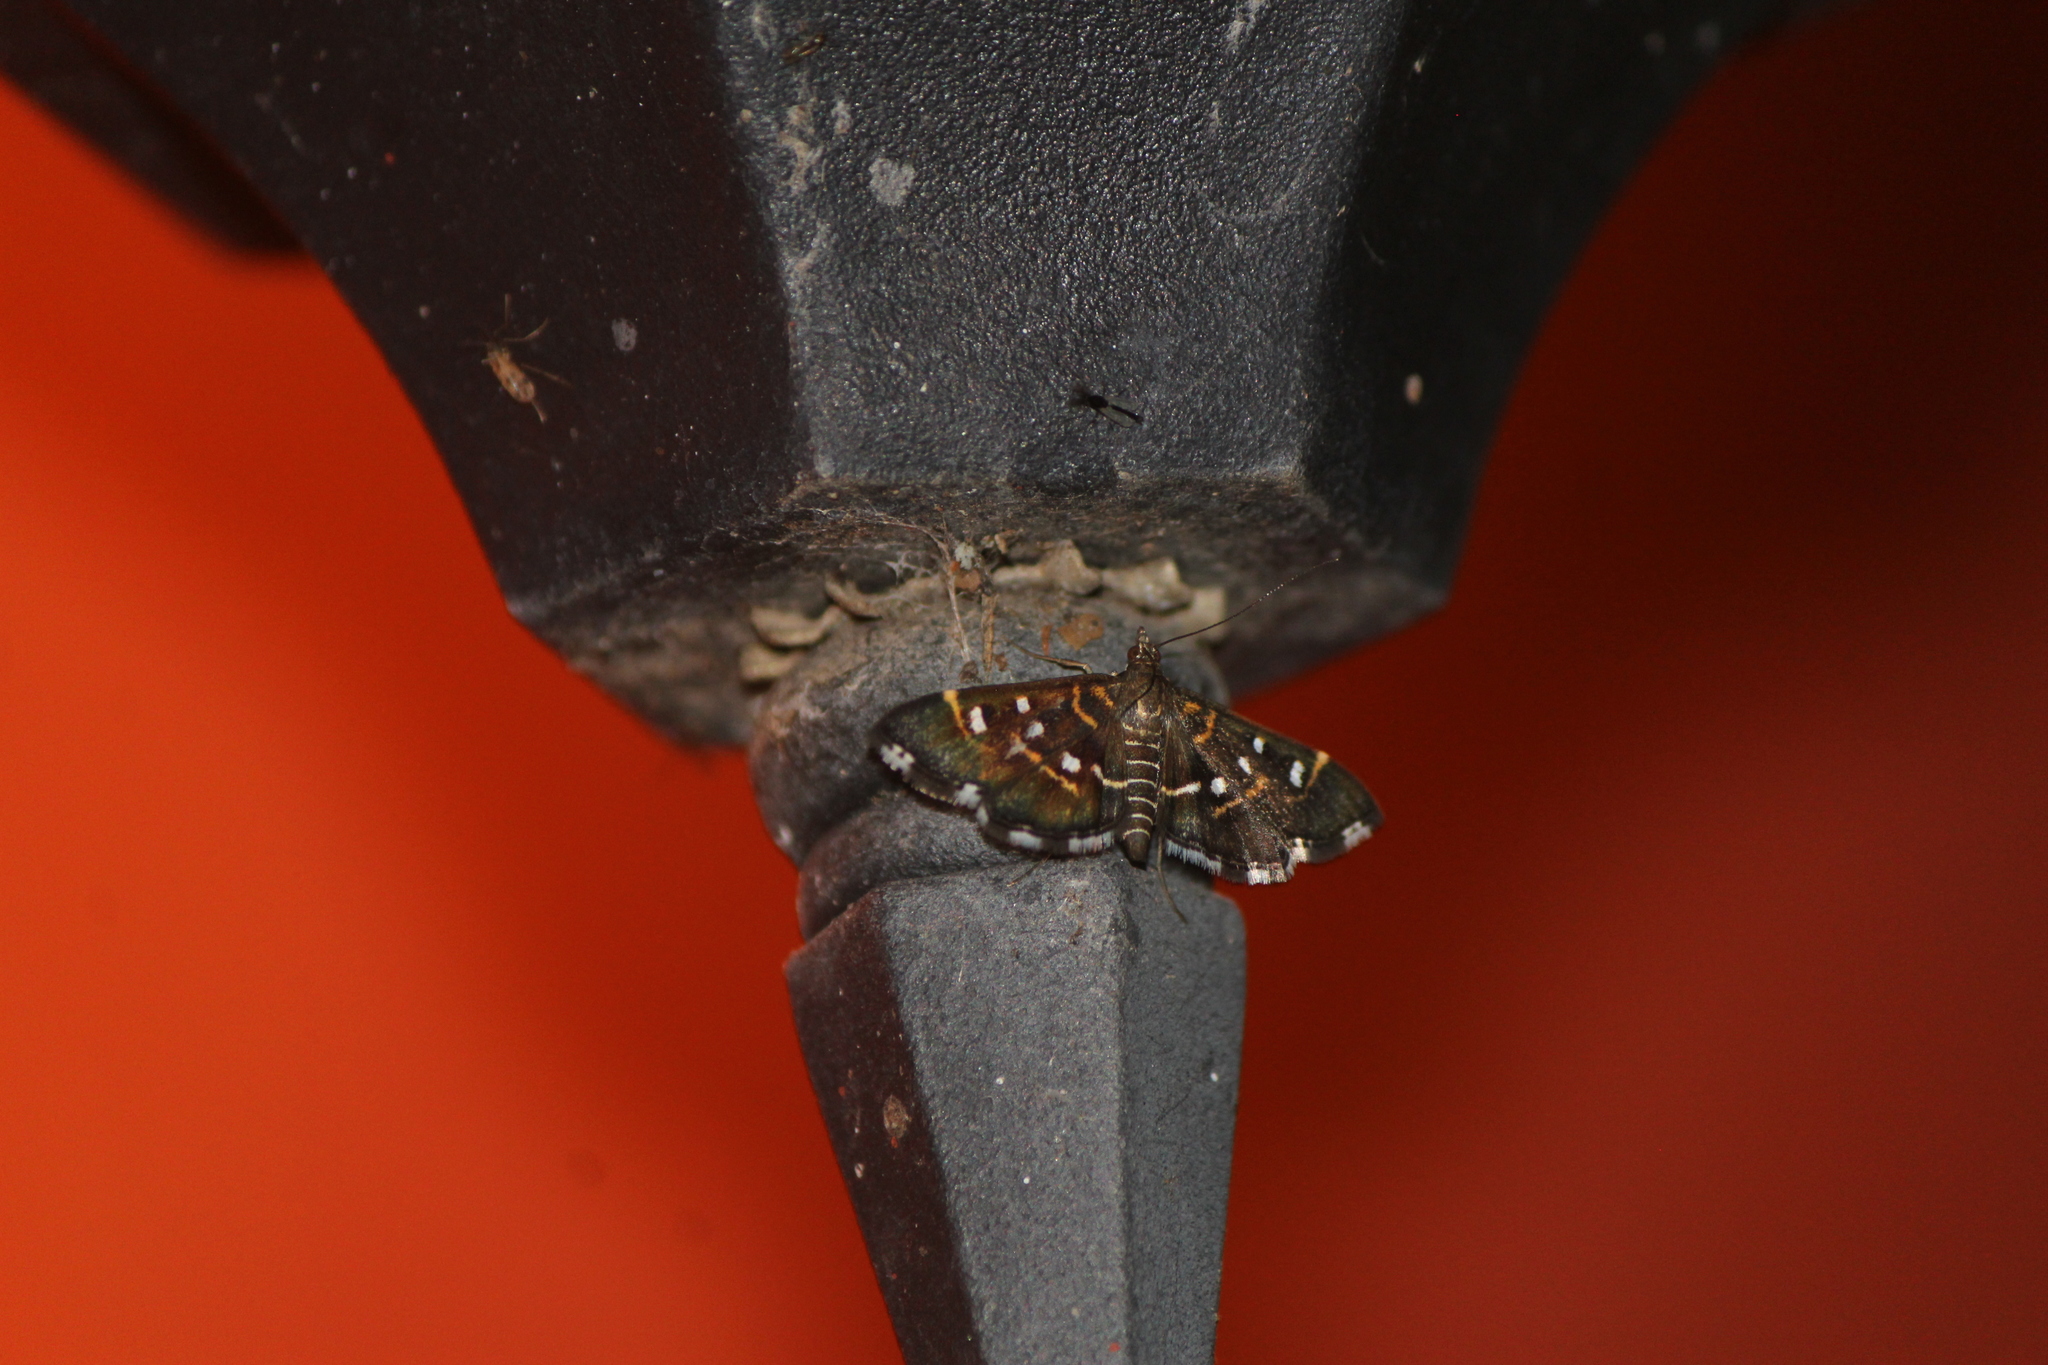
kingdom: Animalia
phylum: Arthropoda
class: Insecta
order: Lepidoptera
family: Crambidae
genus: Diathrausta
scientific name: Diathrausta harlequinalis
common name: Harlequin webworm moth
